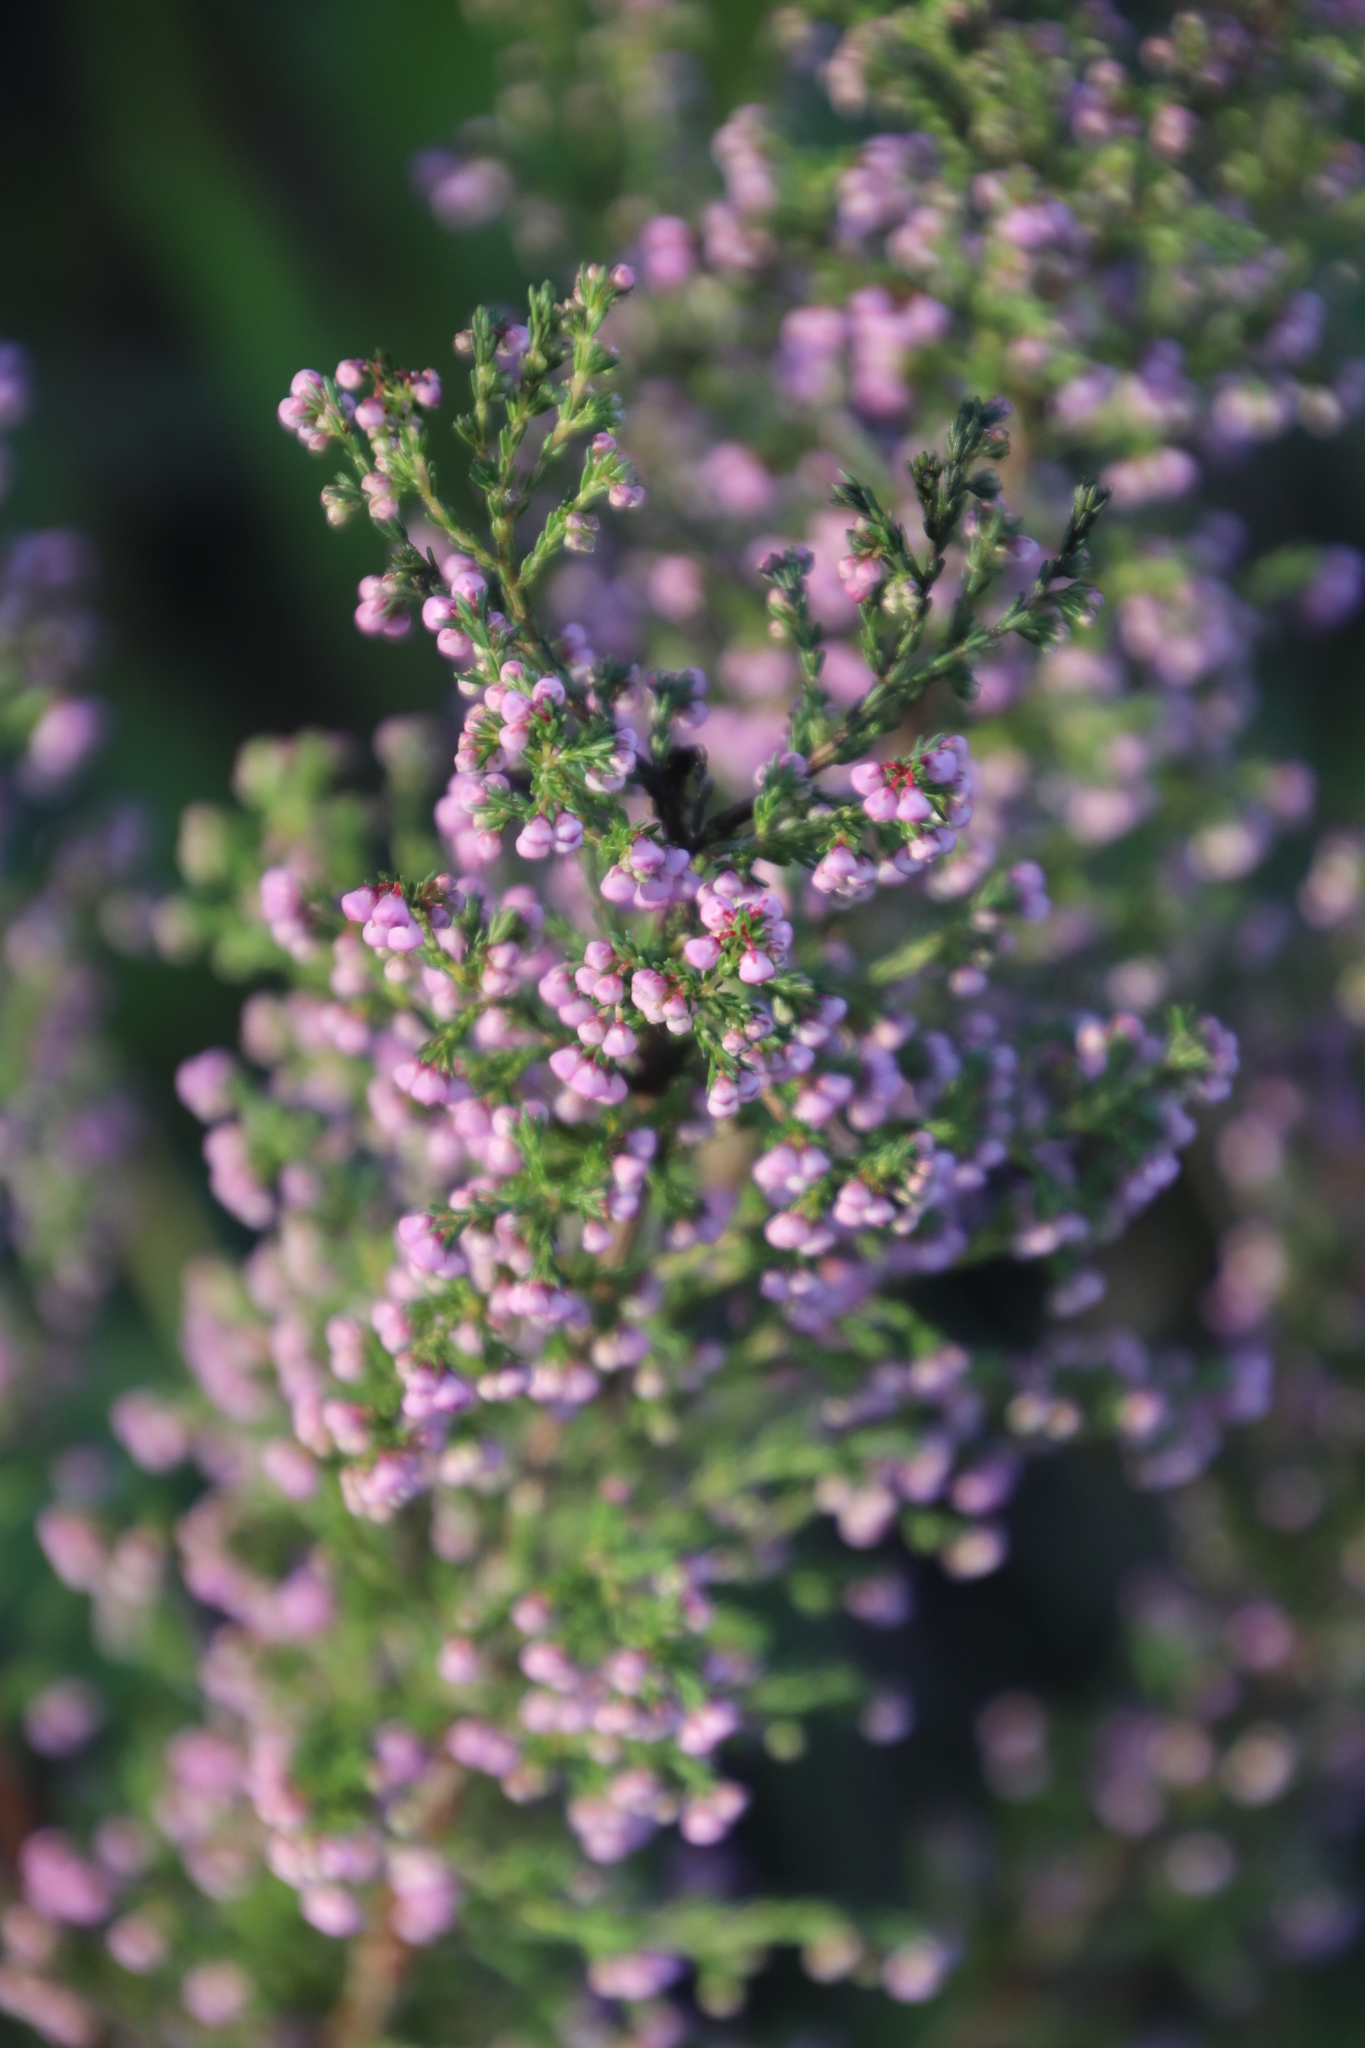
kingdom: Plantae
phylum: Tracheophyta
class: Magnoliopsida
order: Ericales
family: Ericaceae
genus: Erica
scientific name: Erica mauritanica
